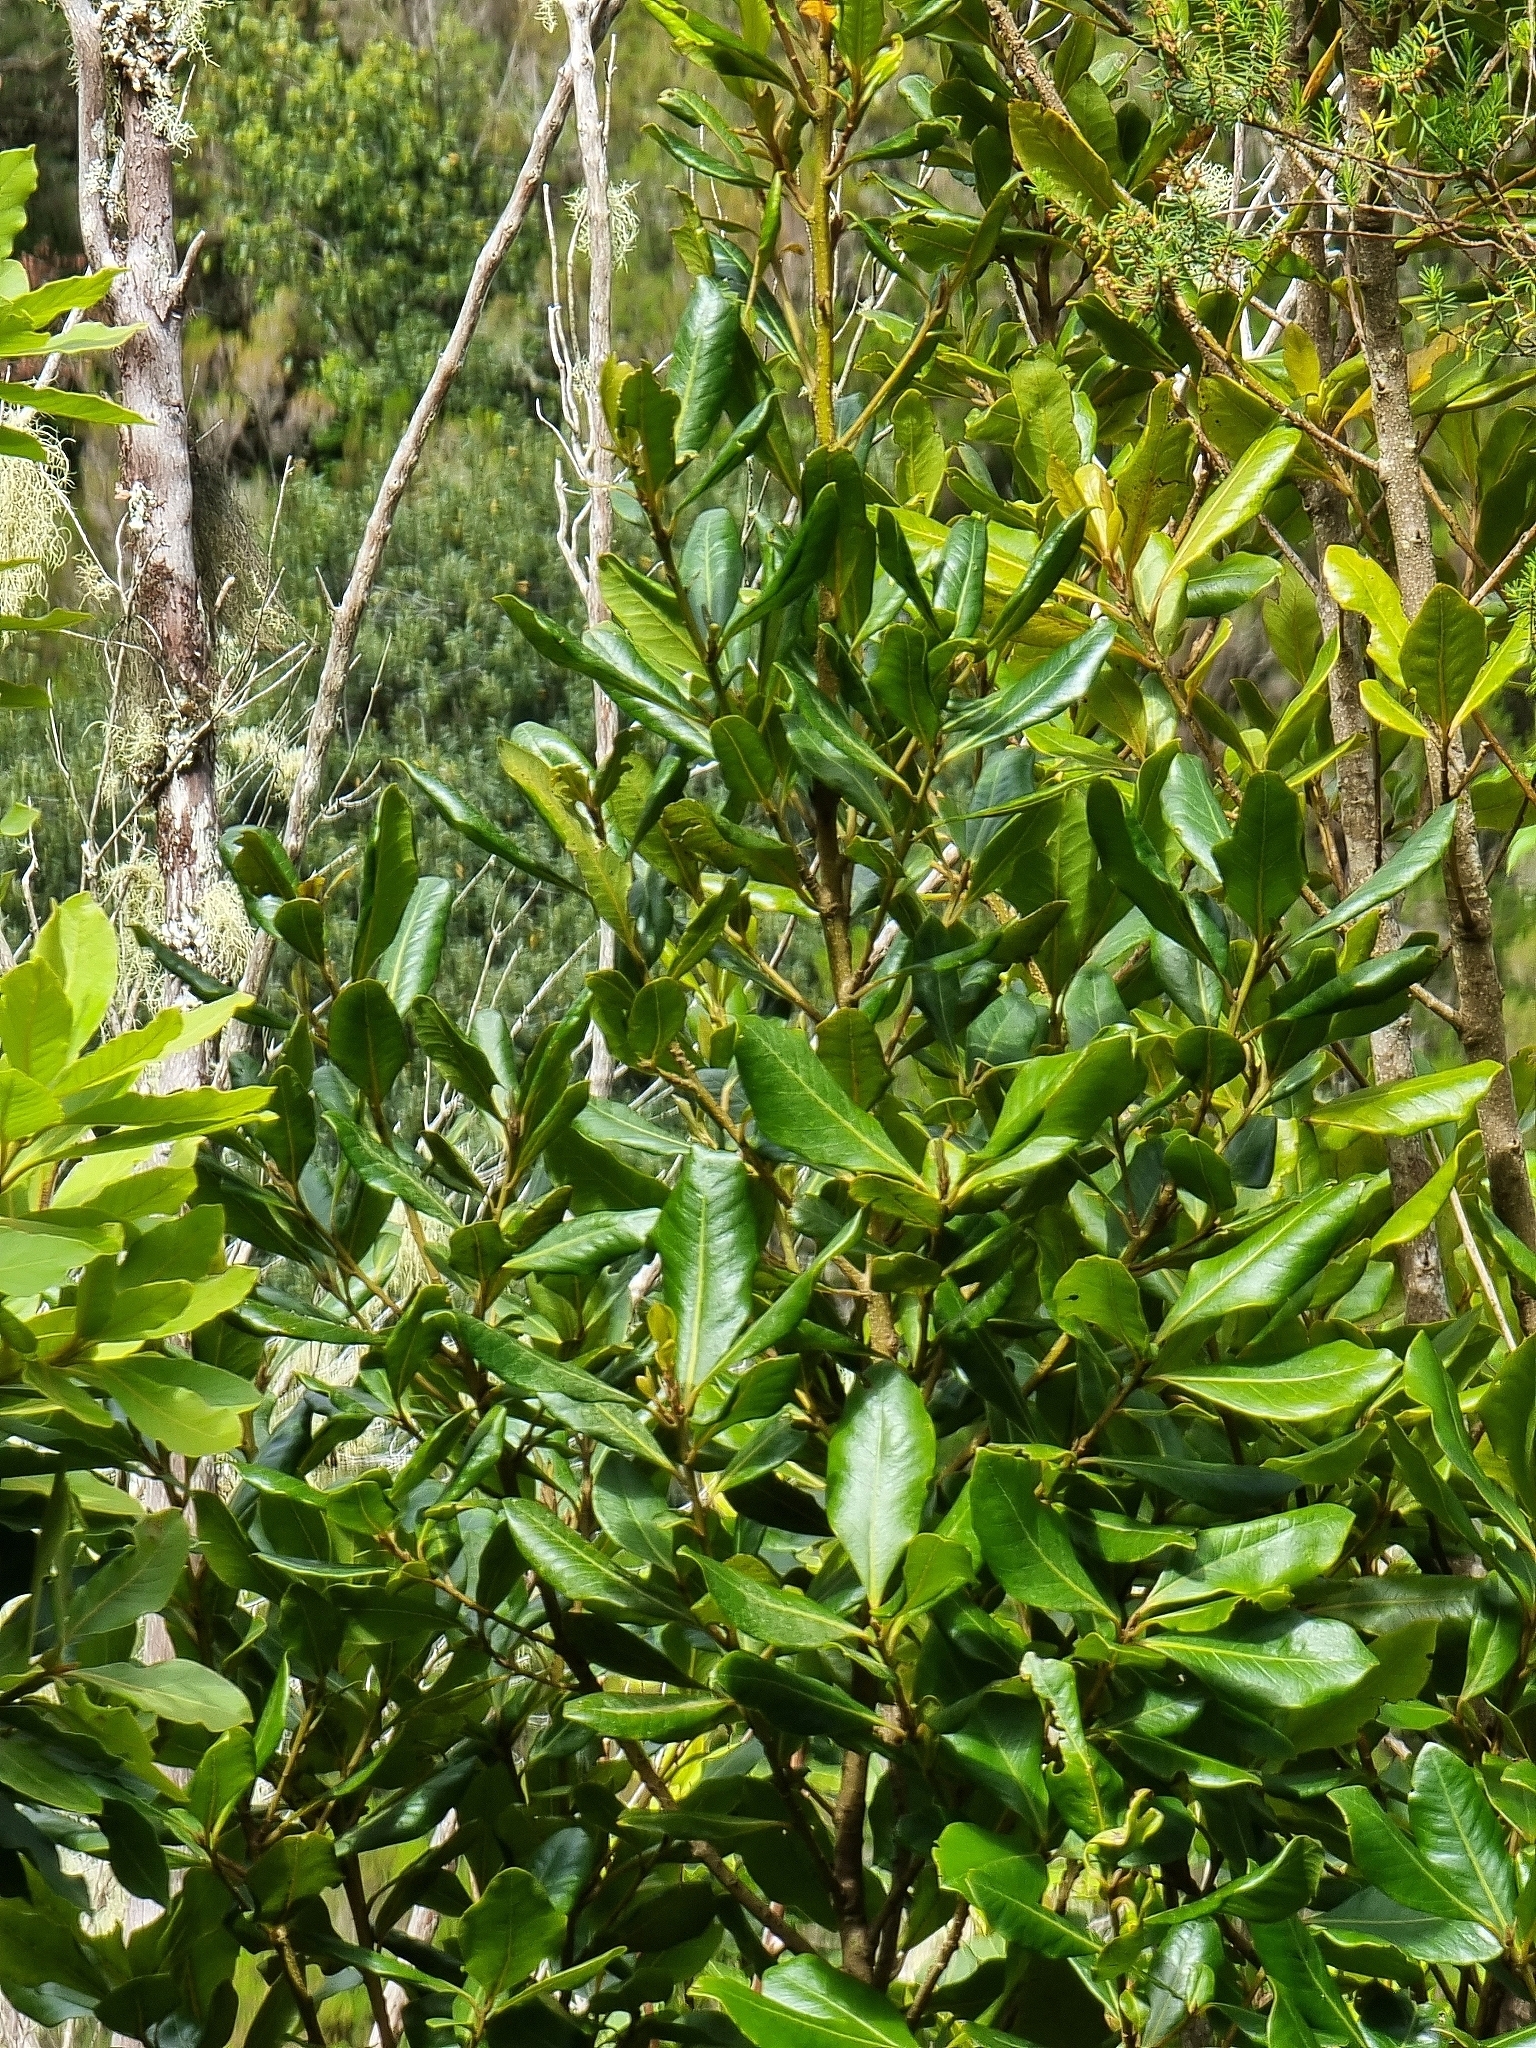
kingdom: Plantae
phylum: Tracheophyta
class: Magnoliopsida
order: Ericales
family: Primulaceae
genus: Heberdenia
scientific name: Heberdenia excelsa
